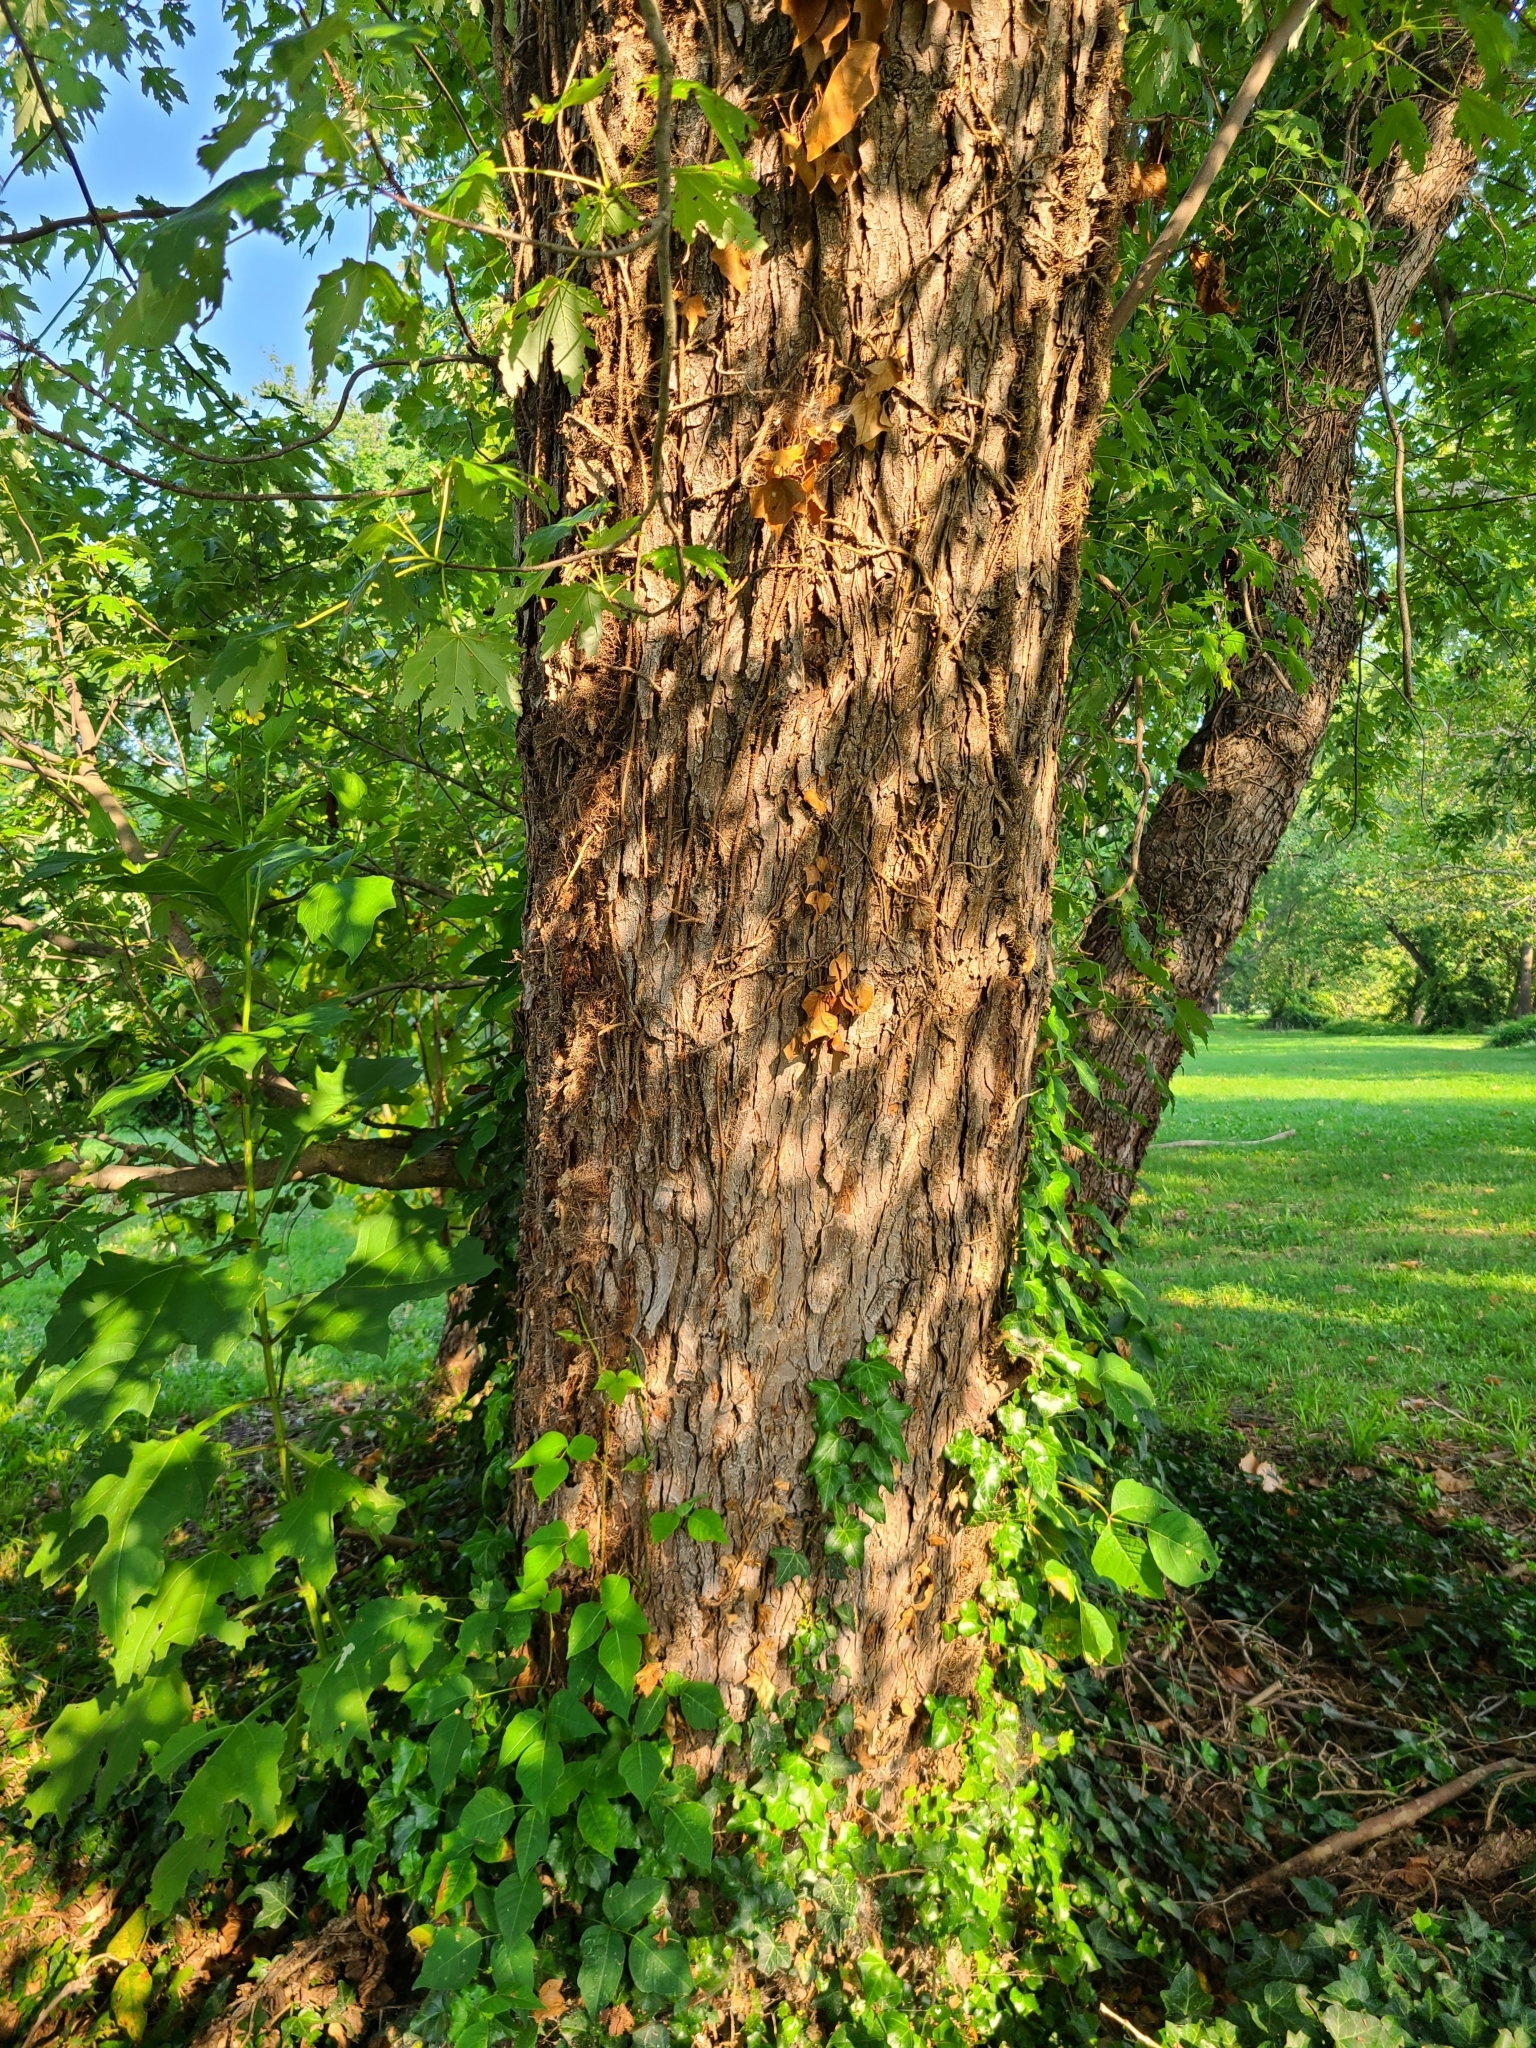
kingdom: Plantae
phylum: Tracheophyta
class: Magnoliopsida
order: Sapindales
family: Sapindaceae
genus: Acer
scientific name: Acer saccharinum
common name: Silver maple
